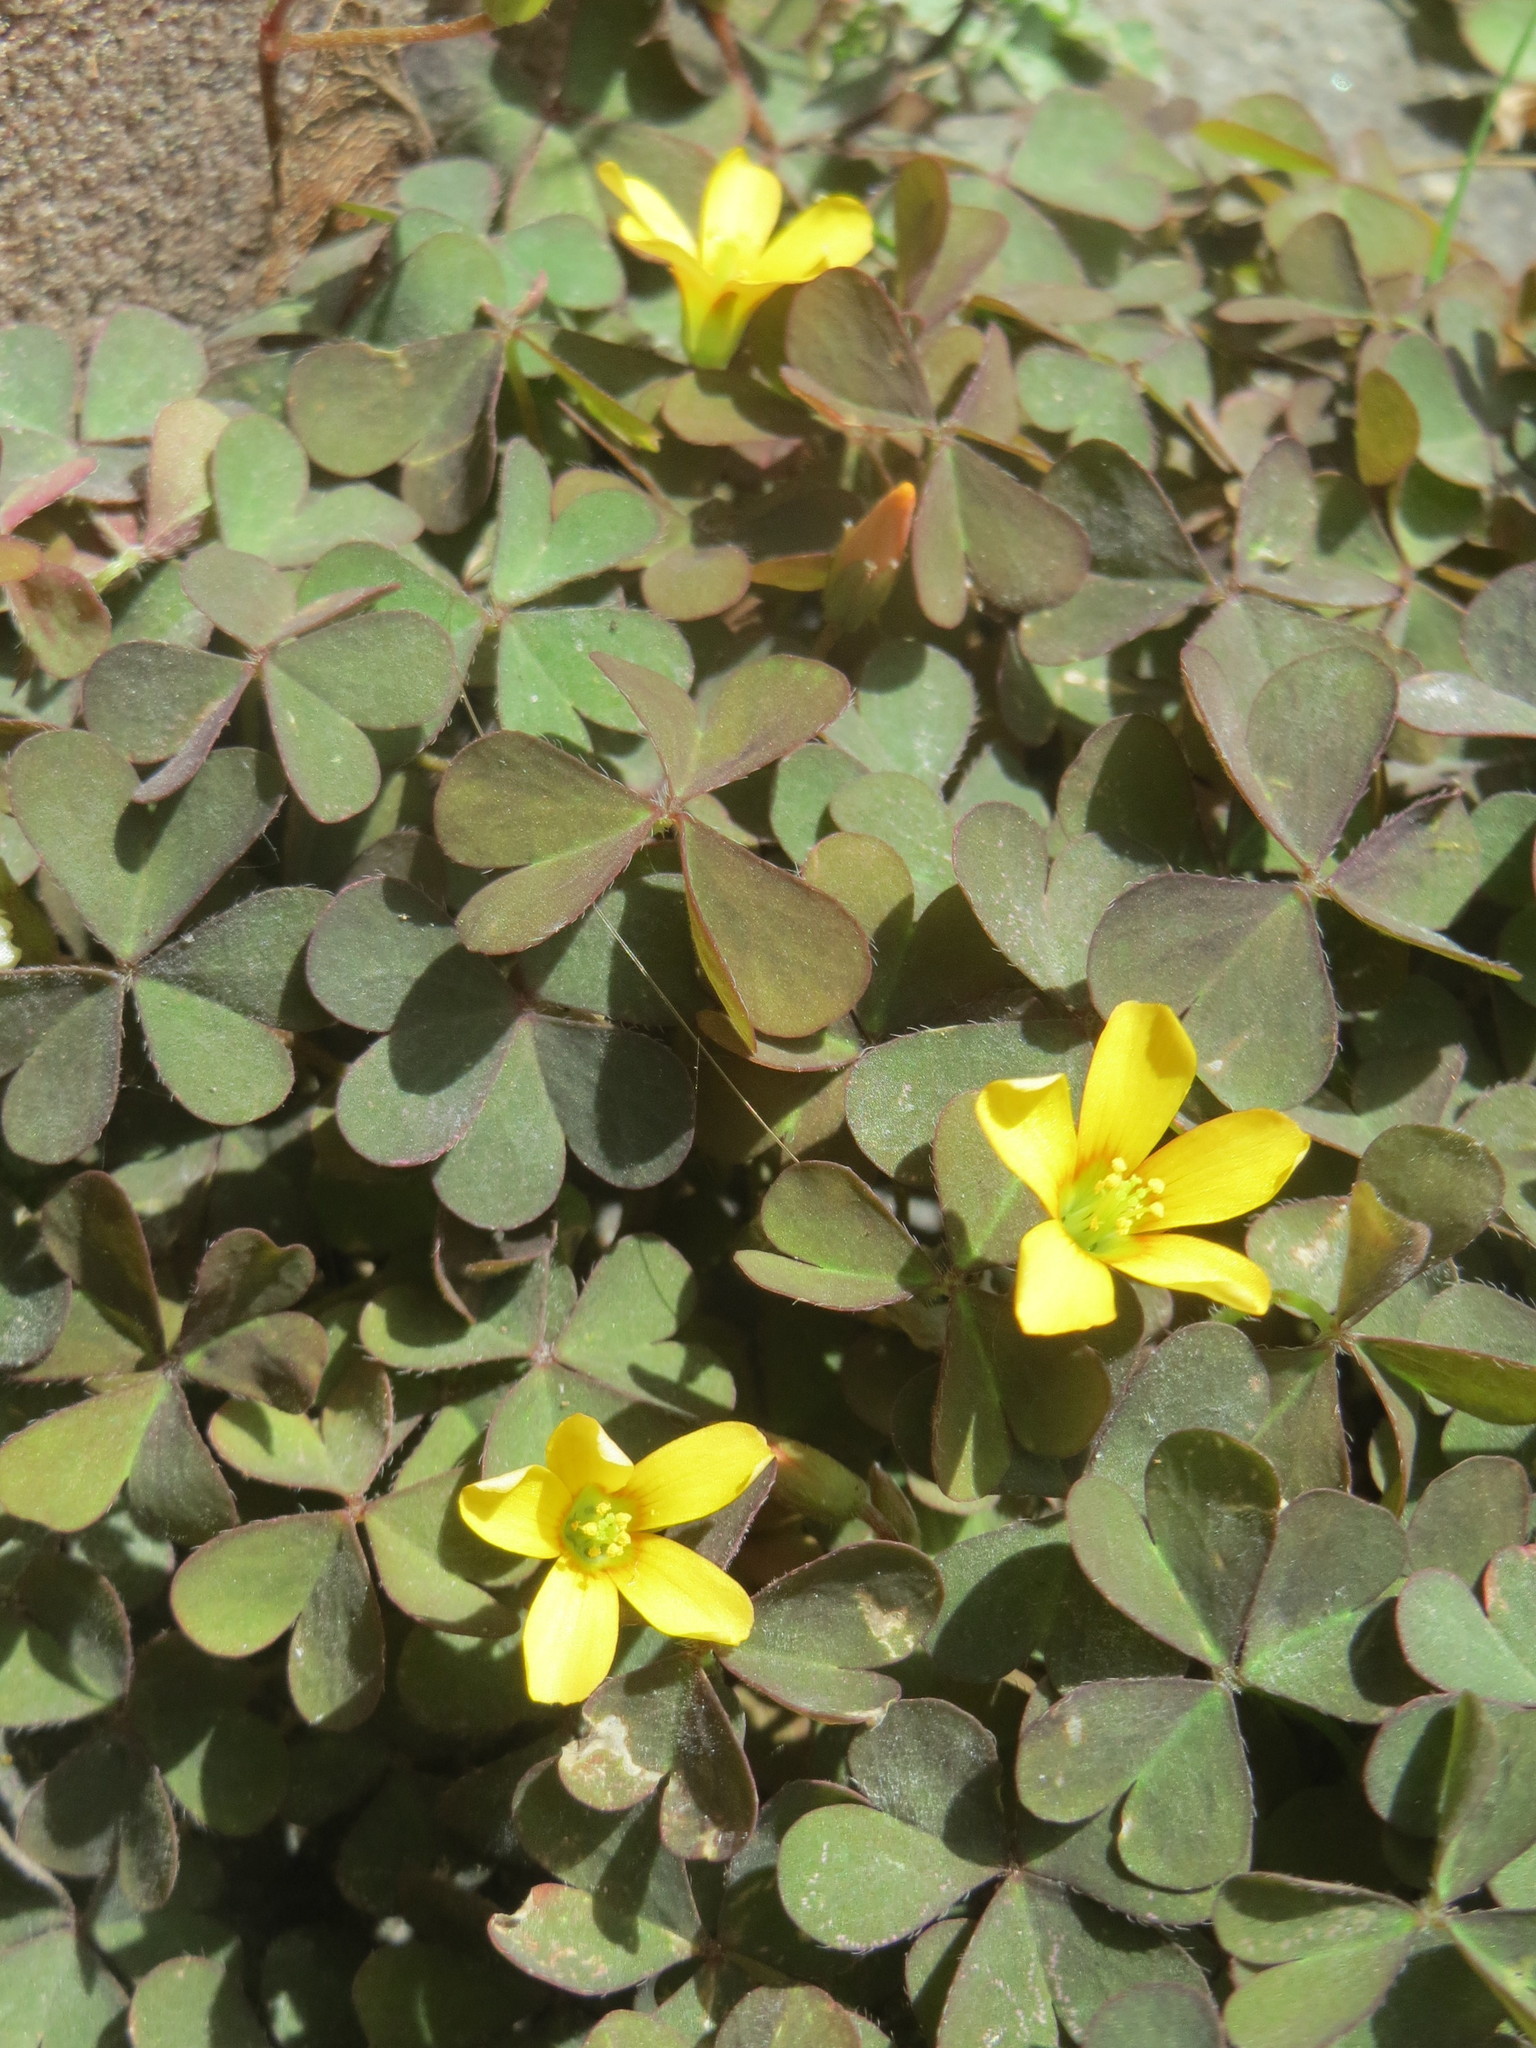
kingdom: Plantae
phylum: Tracheophyta
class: Magnoliopsida
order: Oxalidales
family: Oxalidaceae
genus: Oxalis
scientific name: Oxalis corniculata
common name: Procumbent yellow-sorrel
